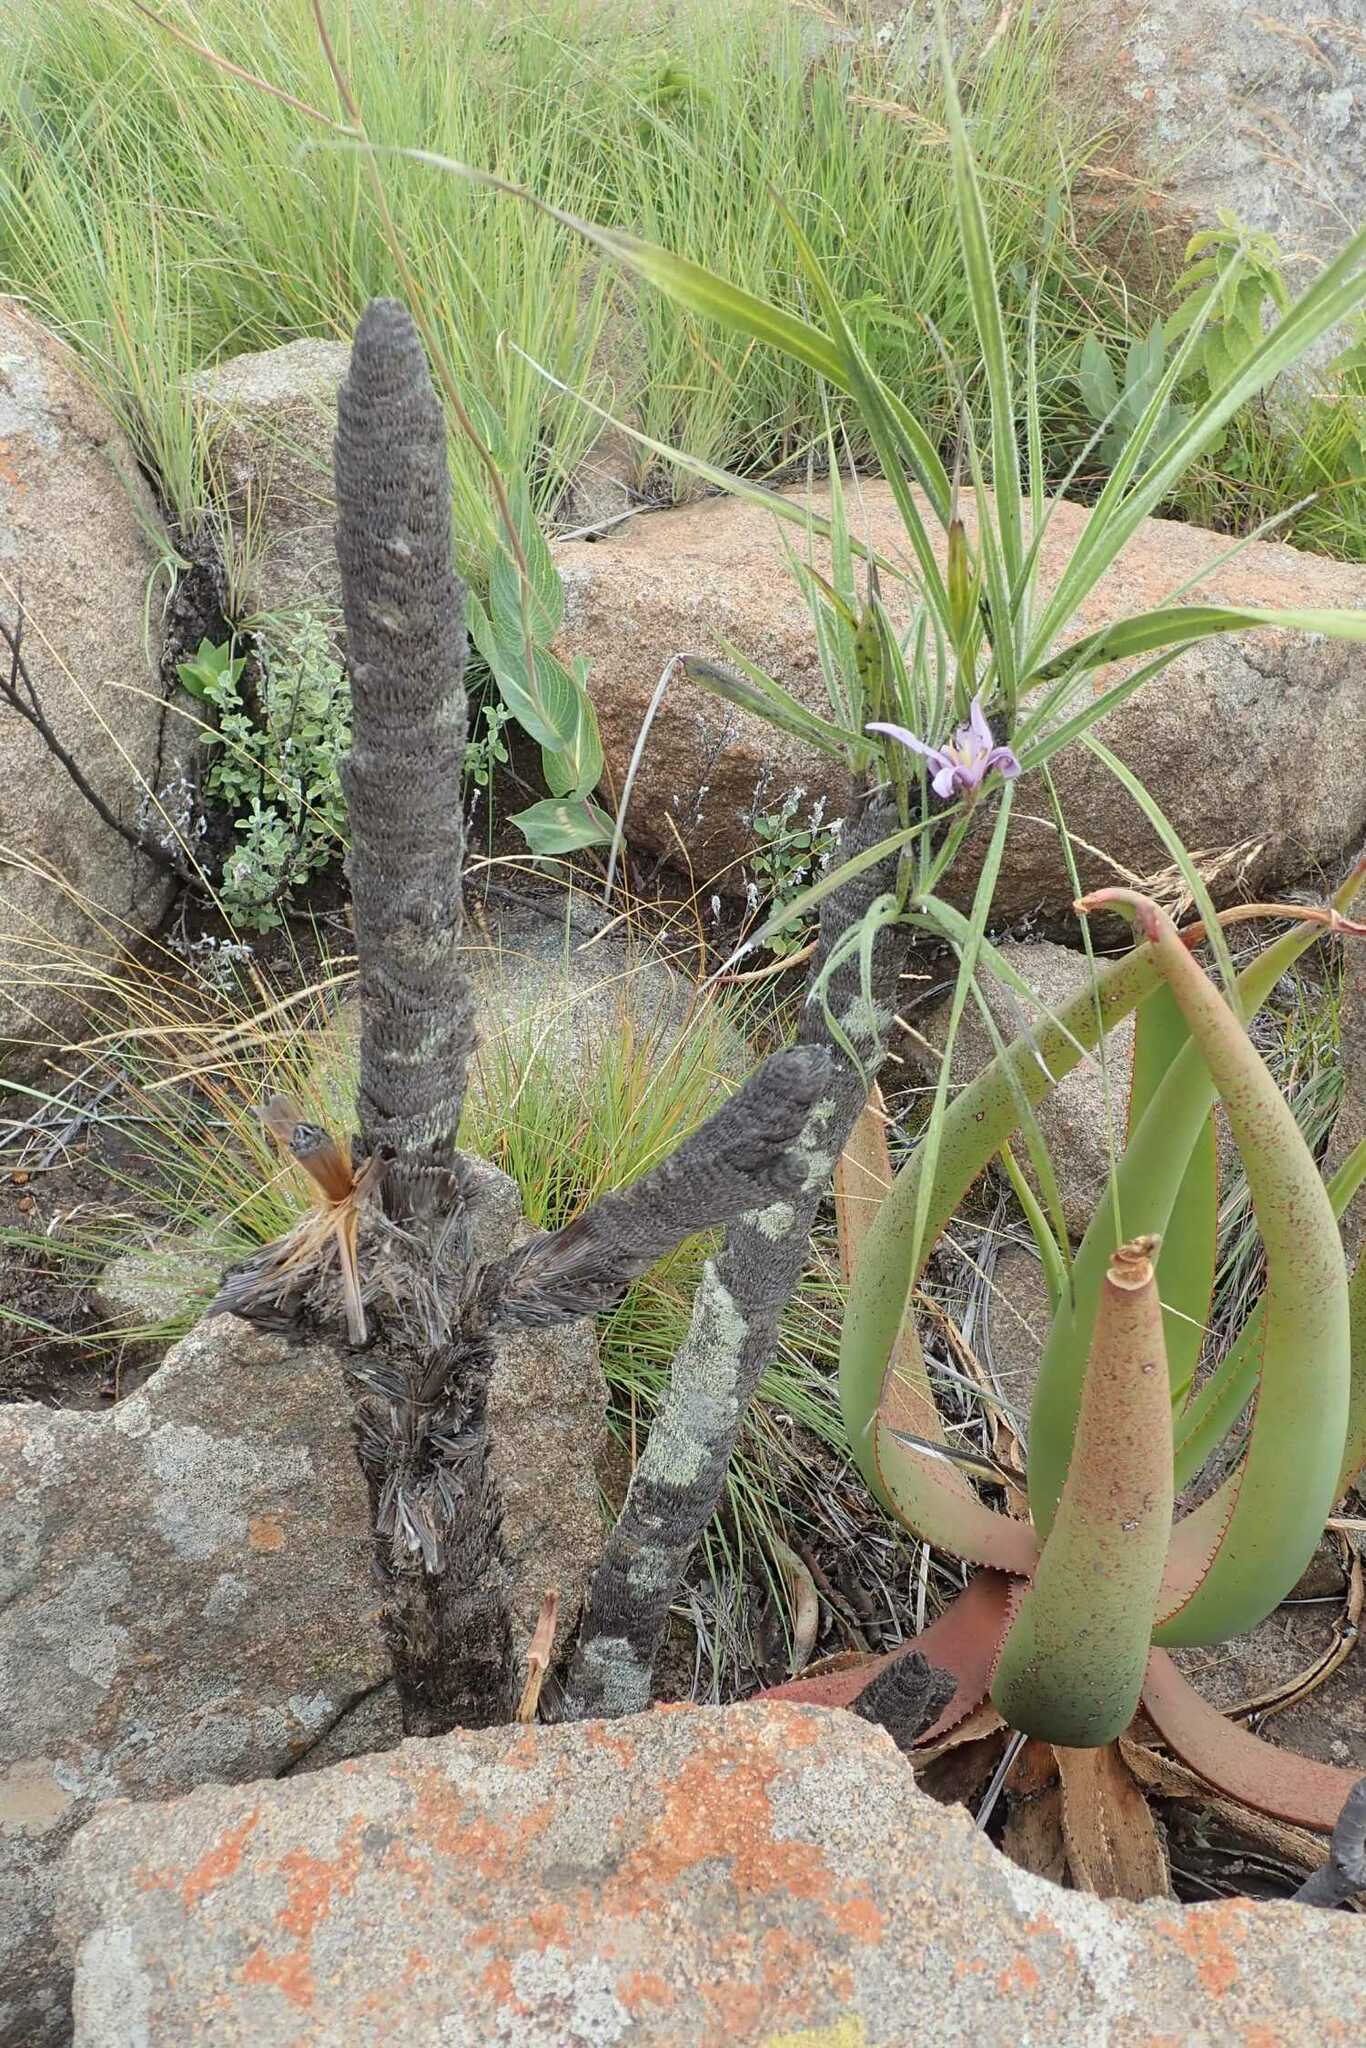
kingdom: Plantae
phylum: Tracheophyta
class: Liliopsida
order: Pandanales
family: Velloziaceae
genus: Xerophyta
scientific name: Xerophyta retinervis
